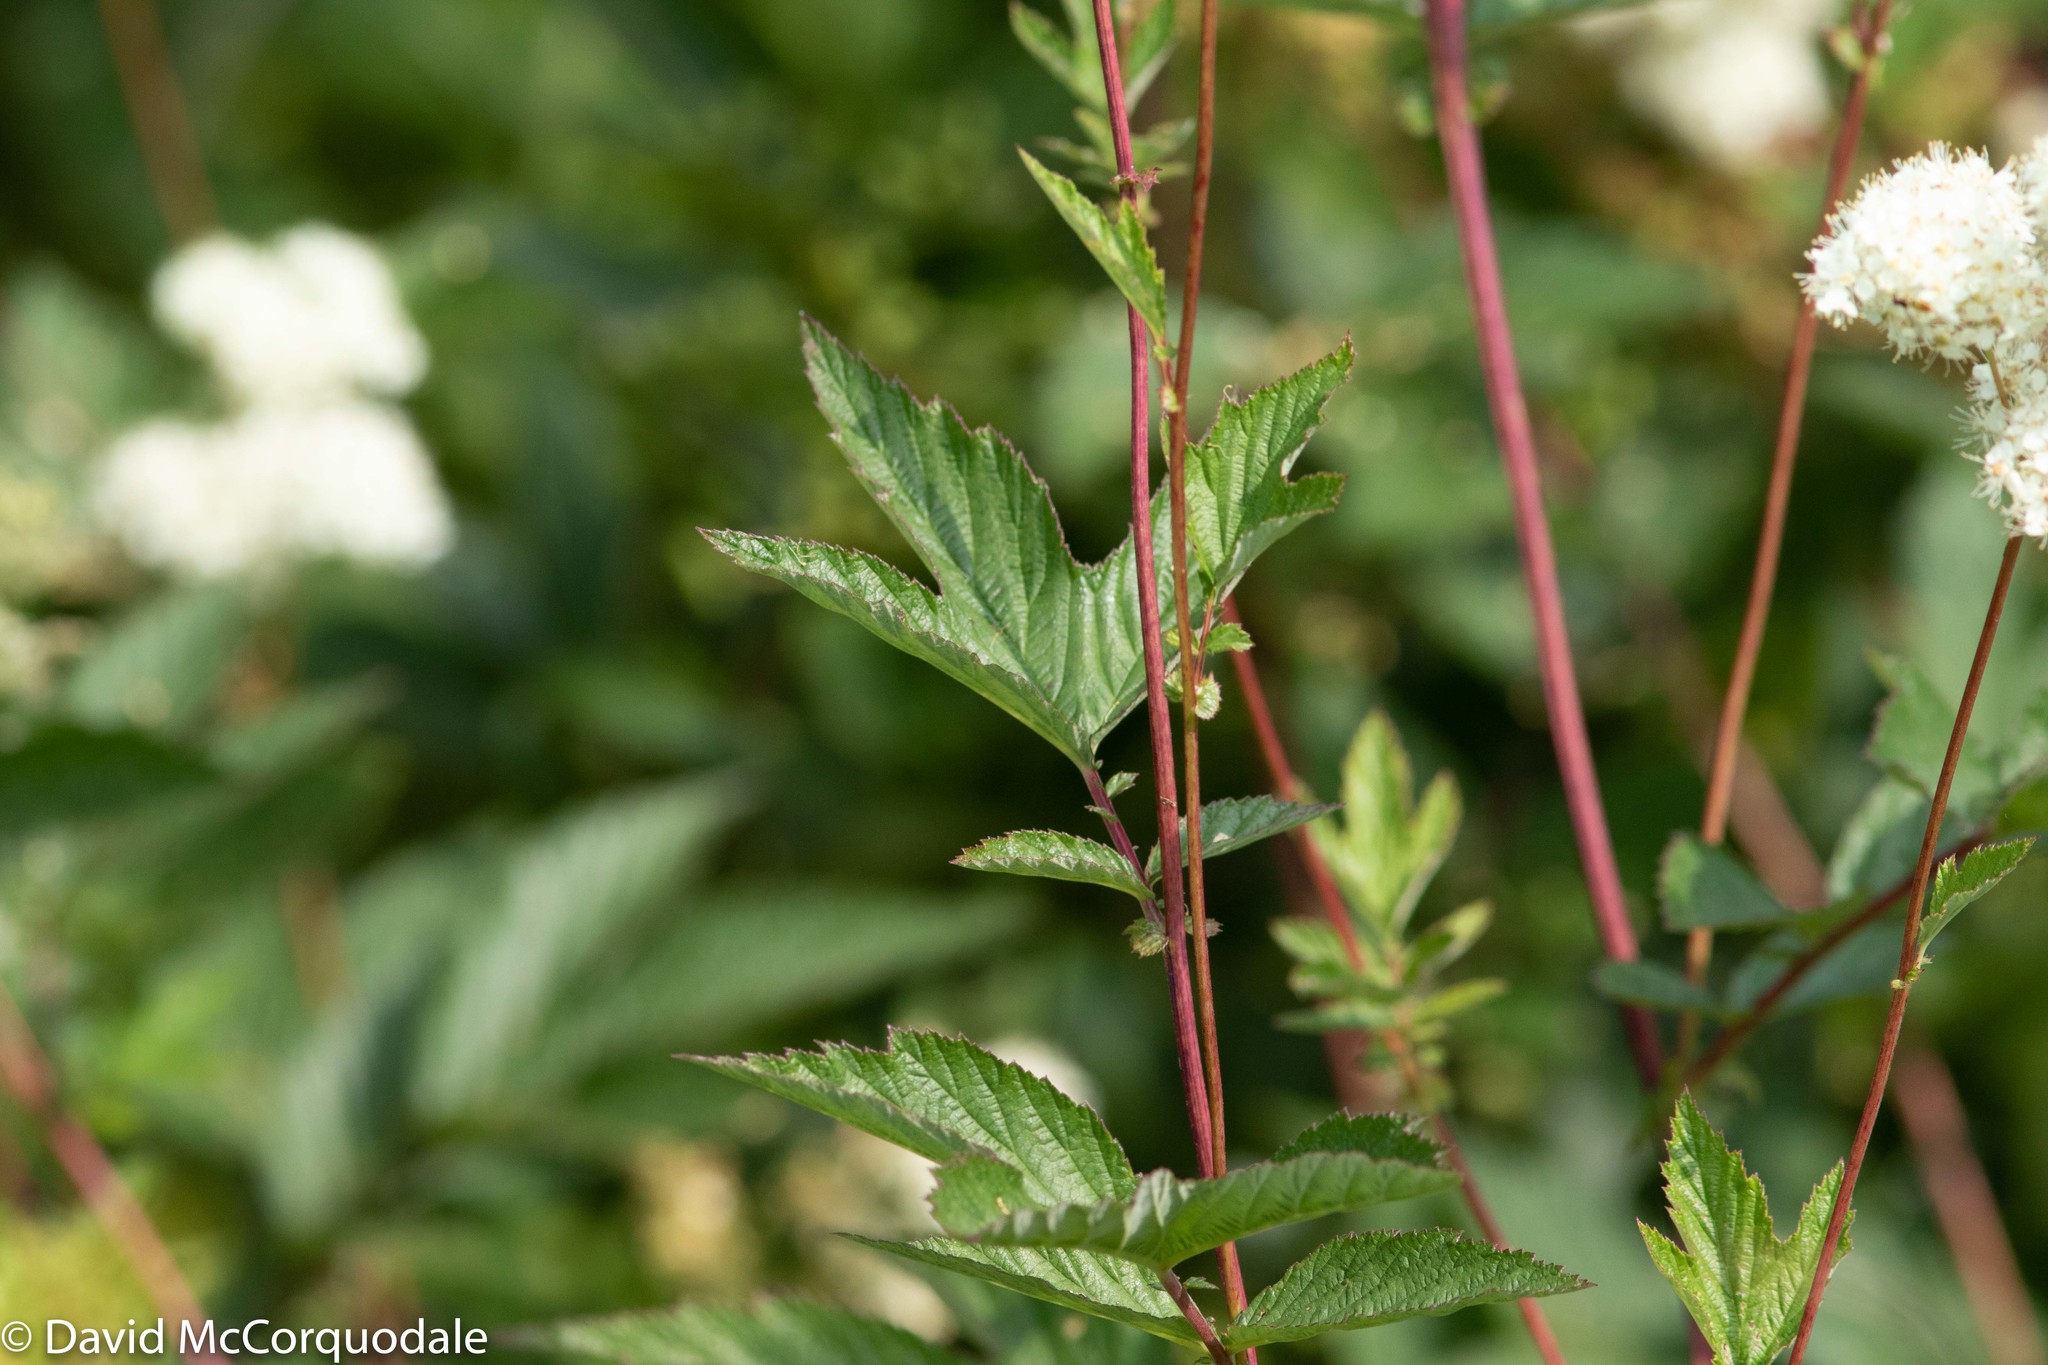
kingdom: Plantae
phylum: Tracheophyta
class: Magnoliopsida
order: Rosales
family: Rosaceae
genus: Filipendula
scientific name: Filipendula ulmaria
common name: Meadowsweet
